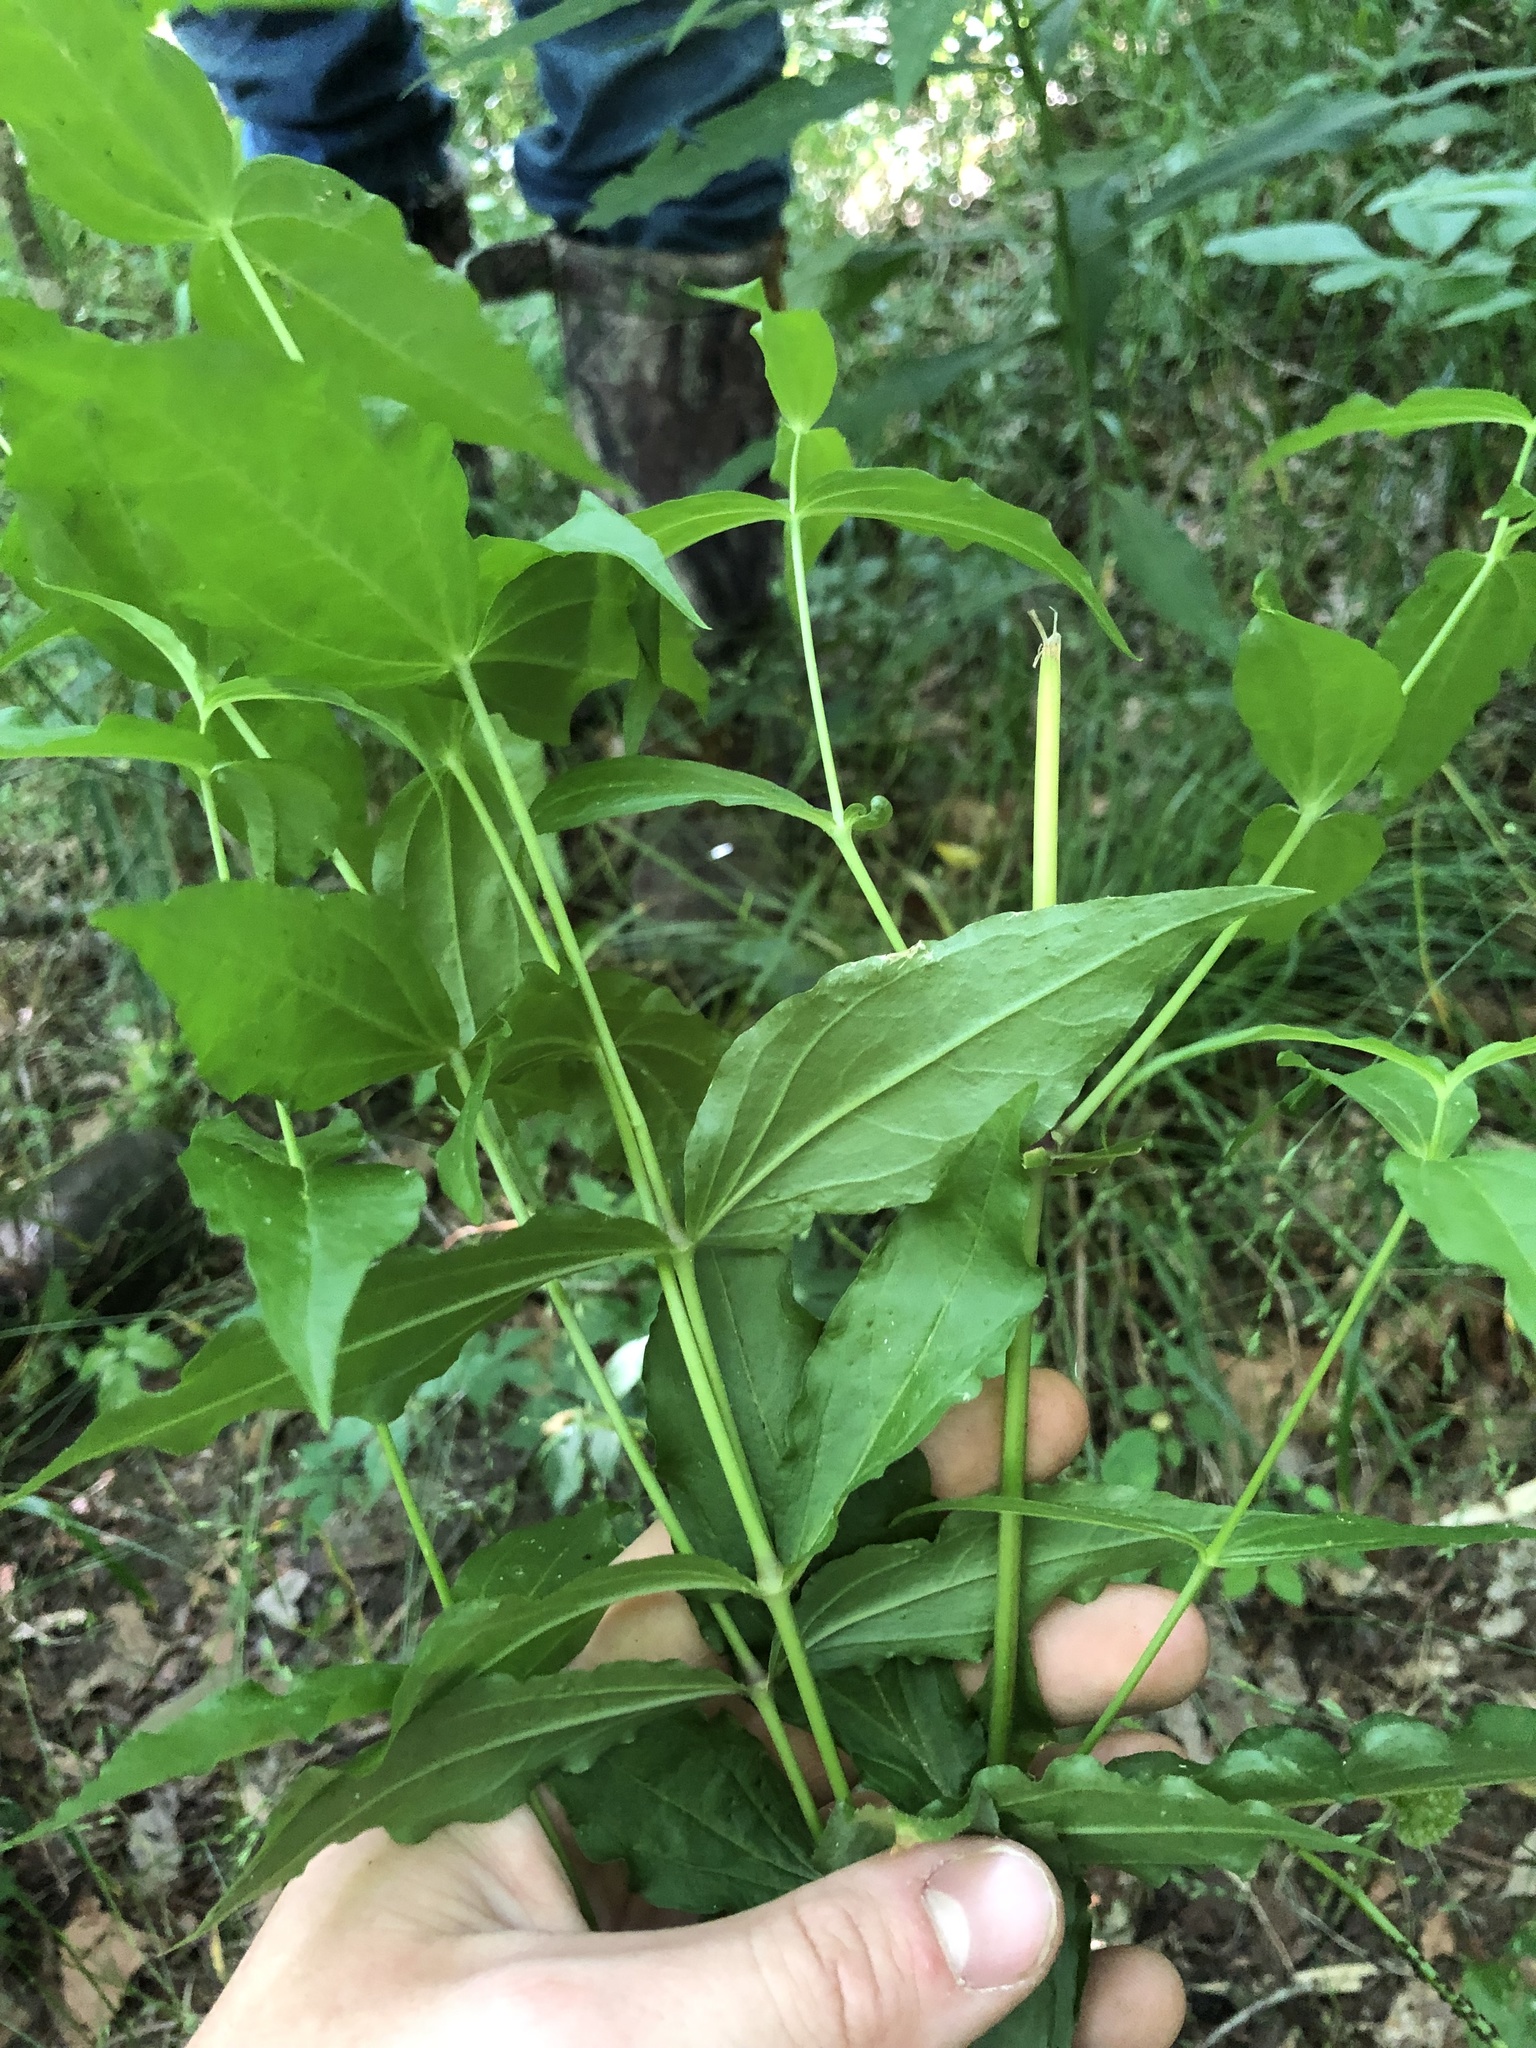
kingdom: Plantae
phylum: Tracheophyta
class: Magnoliopsida
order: Caryophyllales
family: Caryophyllaceae
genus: Silene
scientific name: Silene ovata
